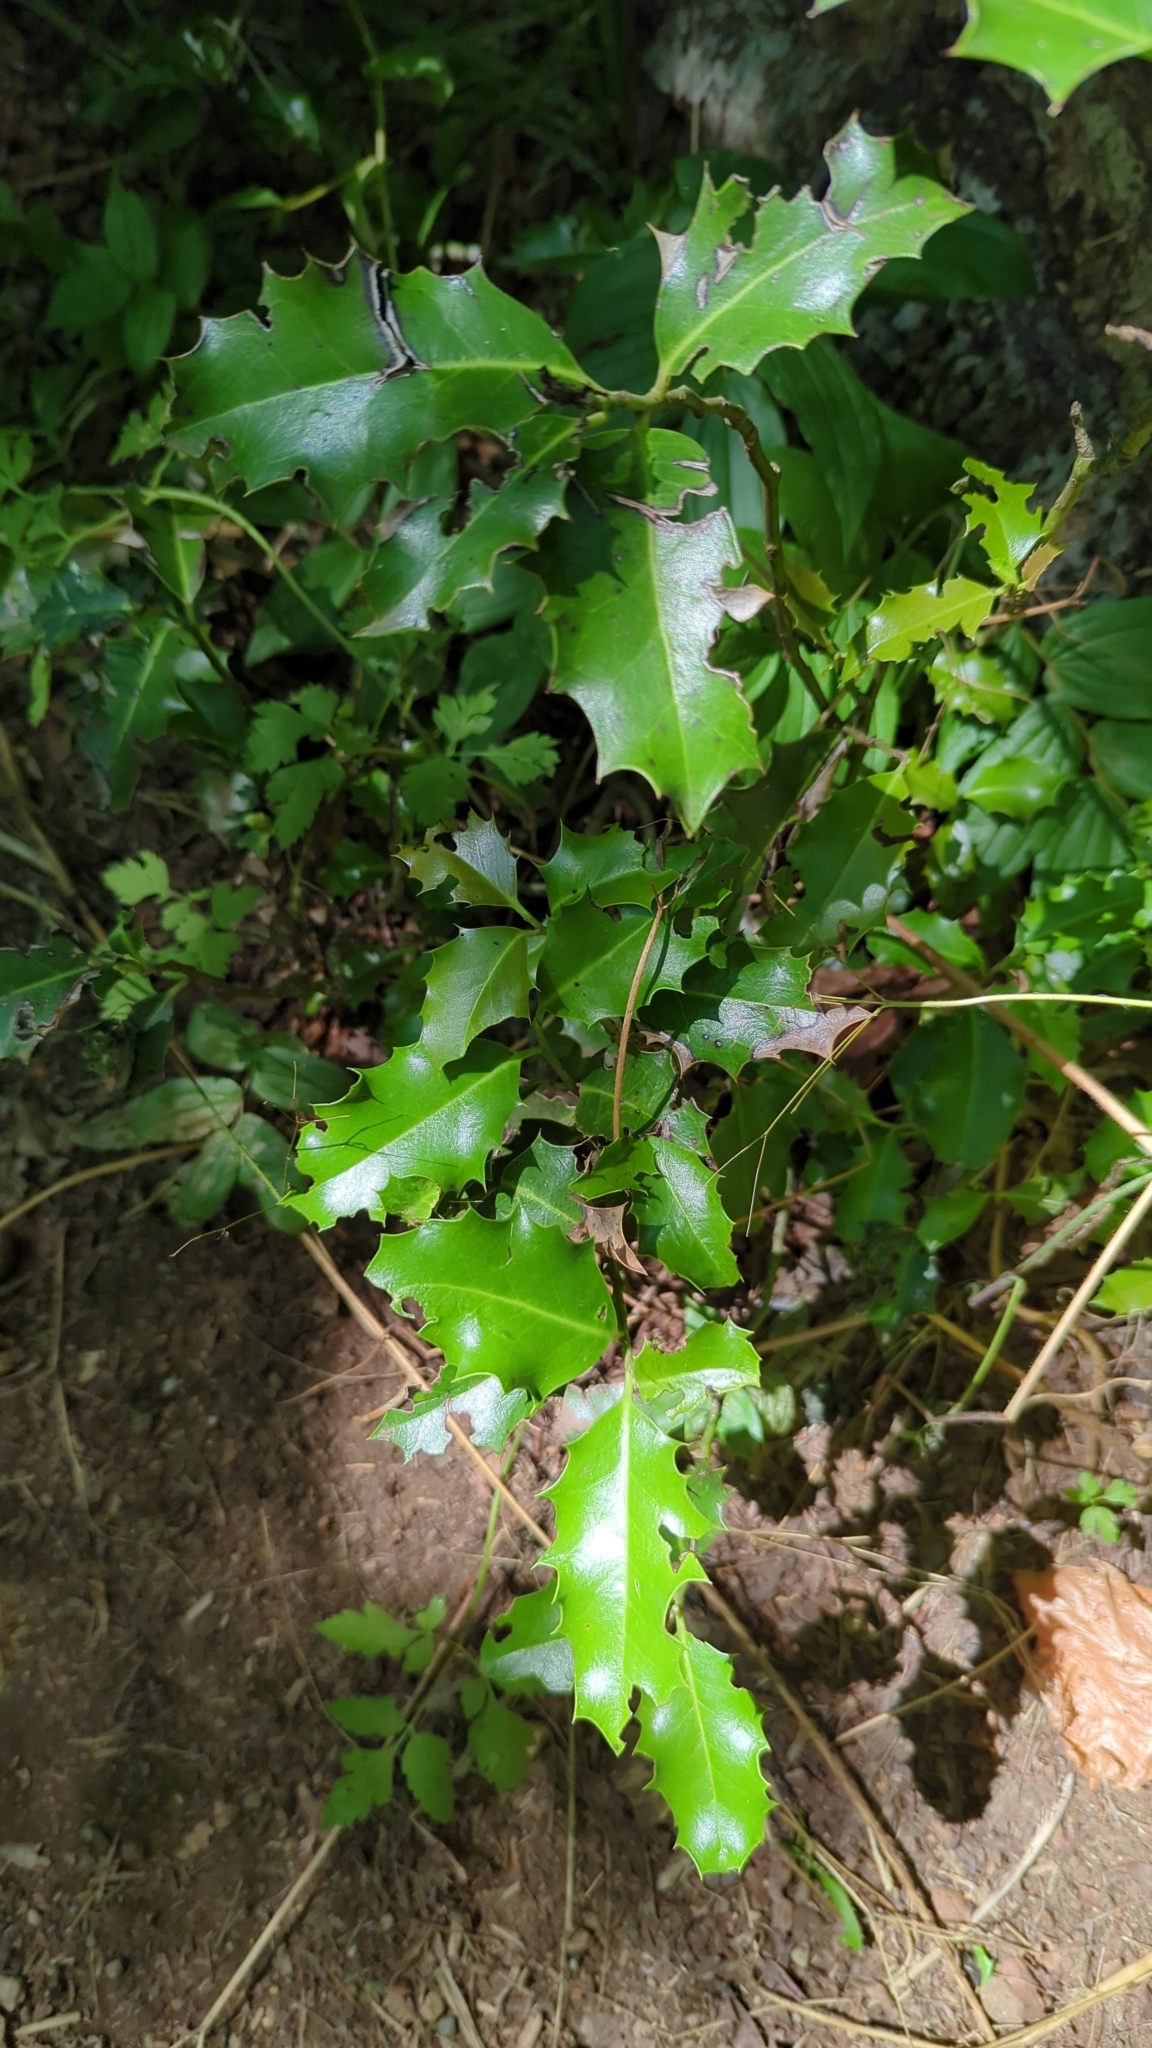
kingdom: Plantae
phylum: Tracheophyta
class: Magnoliopsida
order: Aquifoliales
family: Aquifoliaceae
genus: Ilex
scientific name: Ilex aquifolium
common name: English holly
